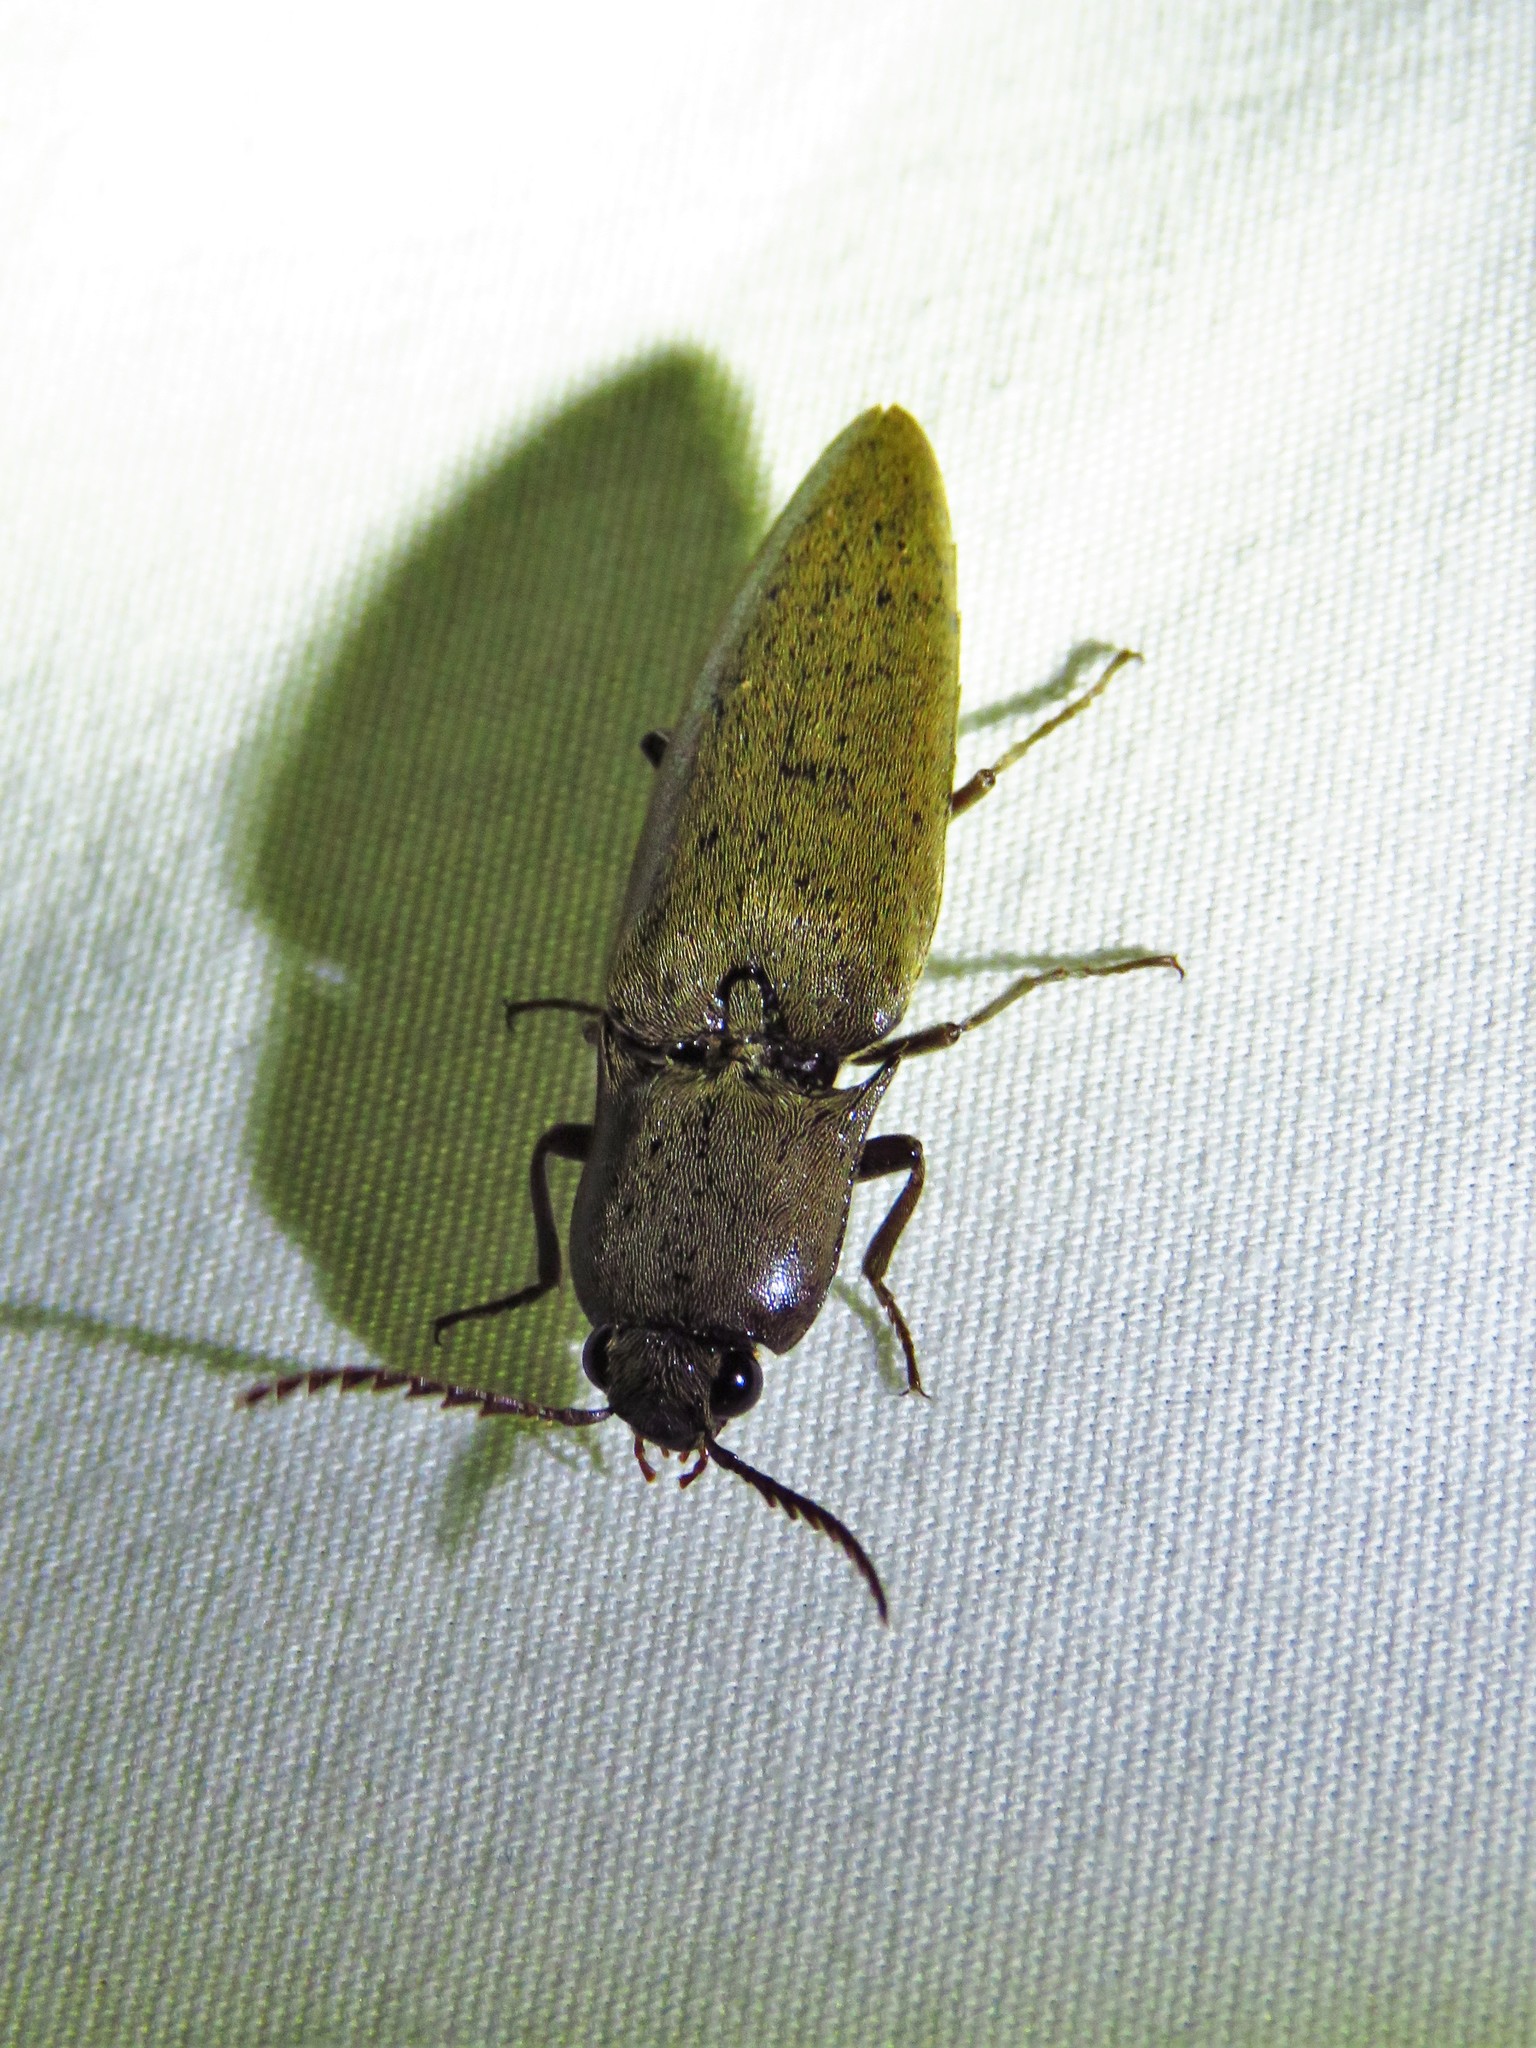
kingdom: Animalia
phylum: Arthropoda
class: Insecta
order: Coleoptera
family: Elateridae
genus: Orthostethus
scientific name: Orthostethus infuscatus
